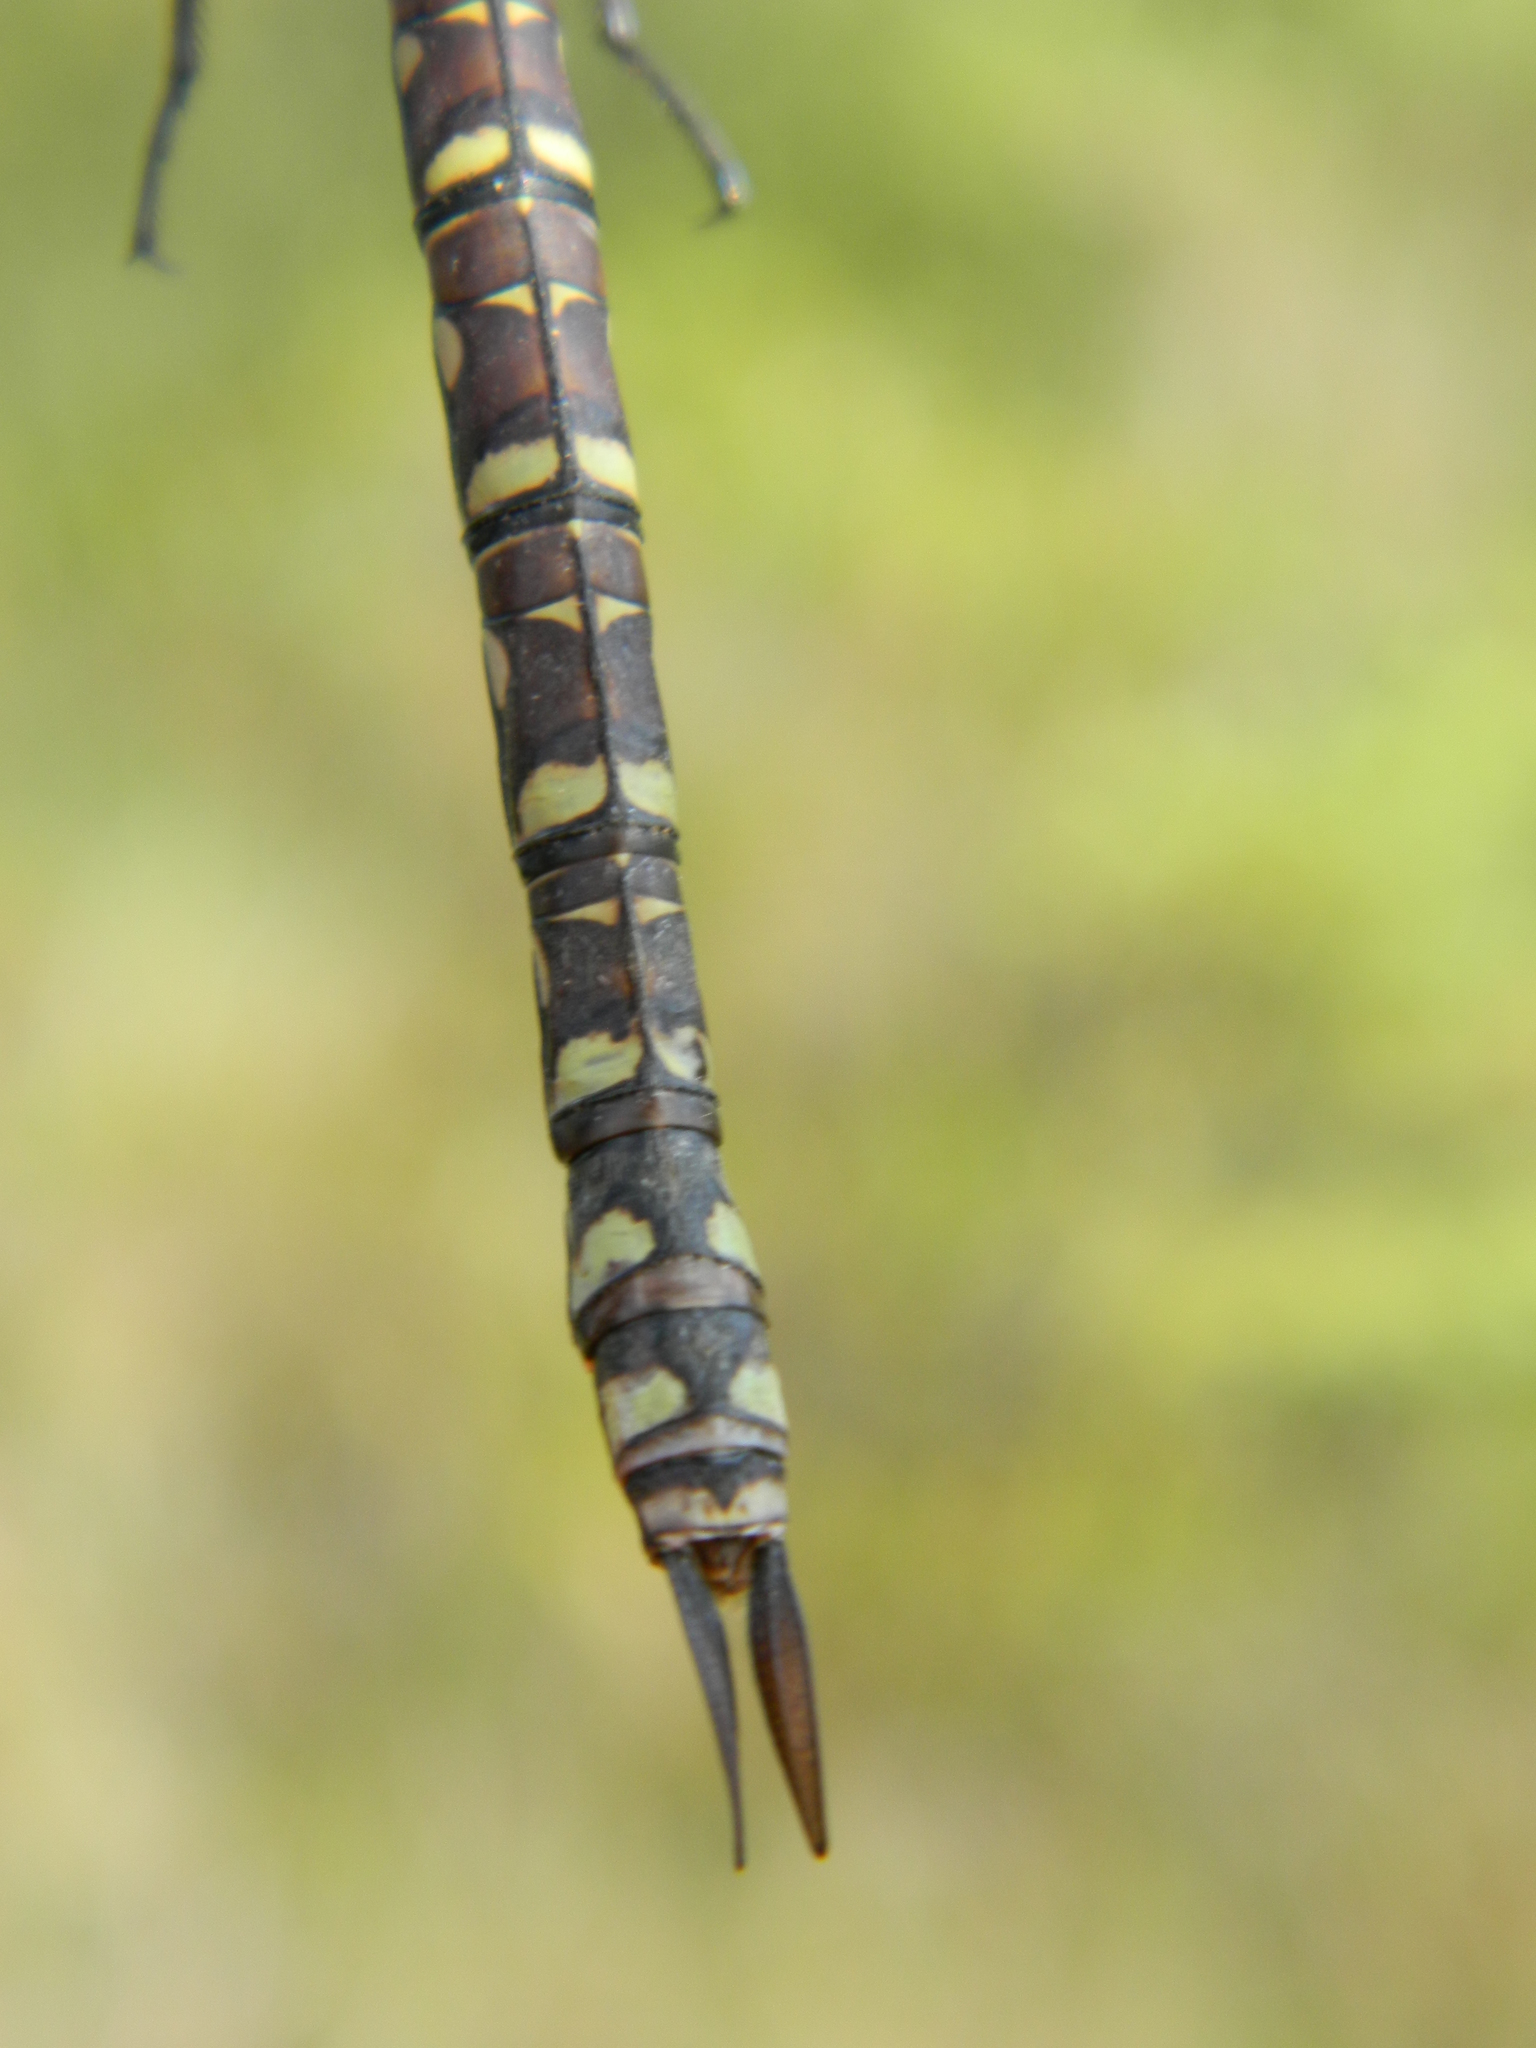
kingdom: Animalia
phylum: Arthropoda
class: Insecta
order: Odonata
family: Aeshnidae
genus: Aeshna
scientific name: Aeshna eremita
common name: Lake darner
